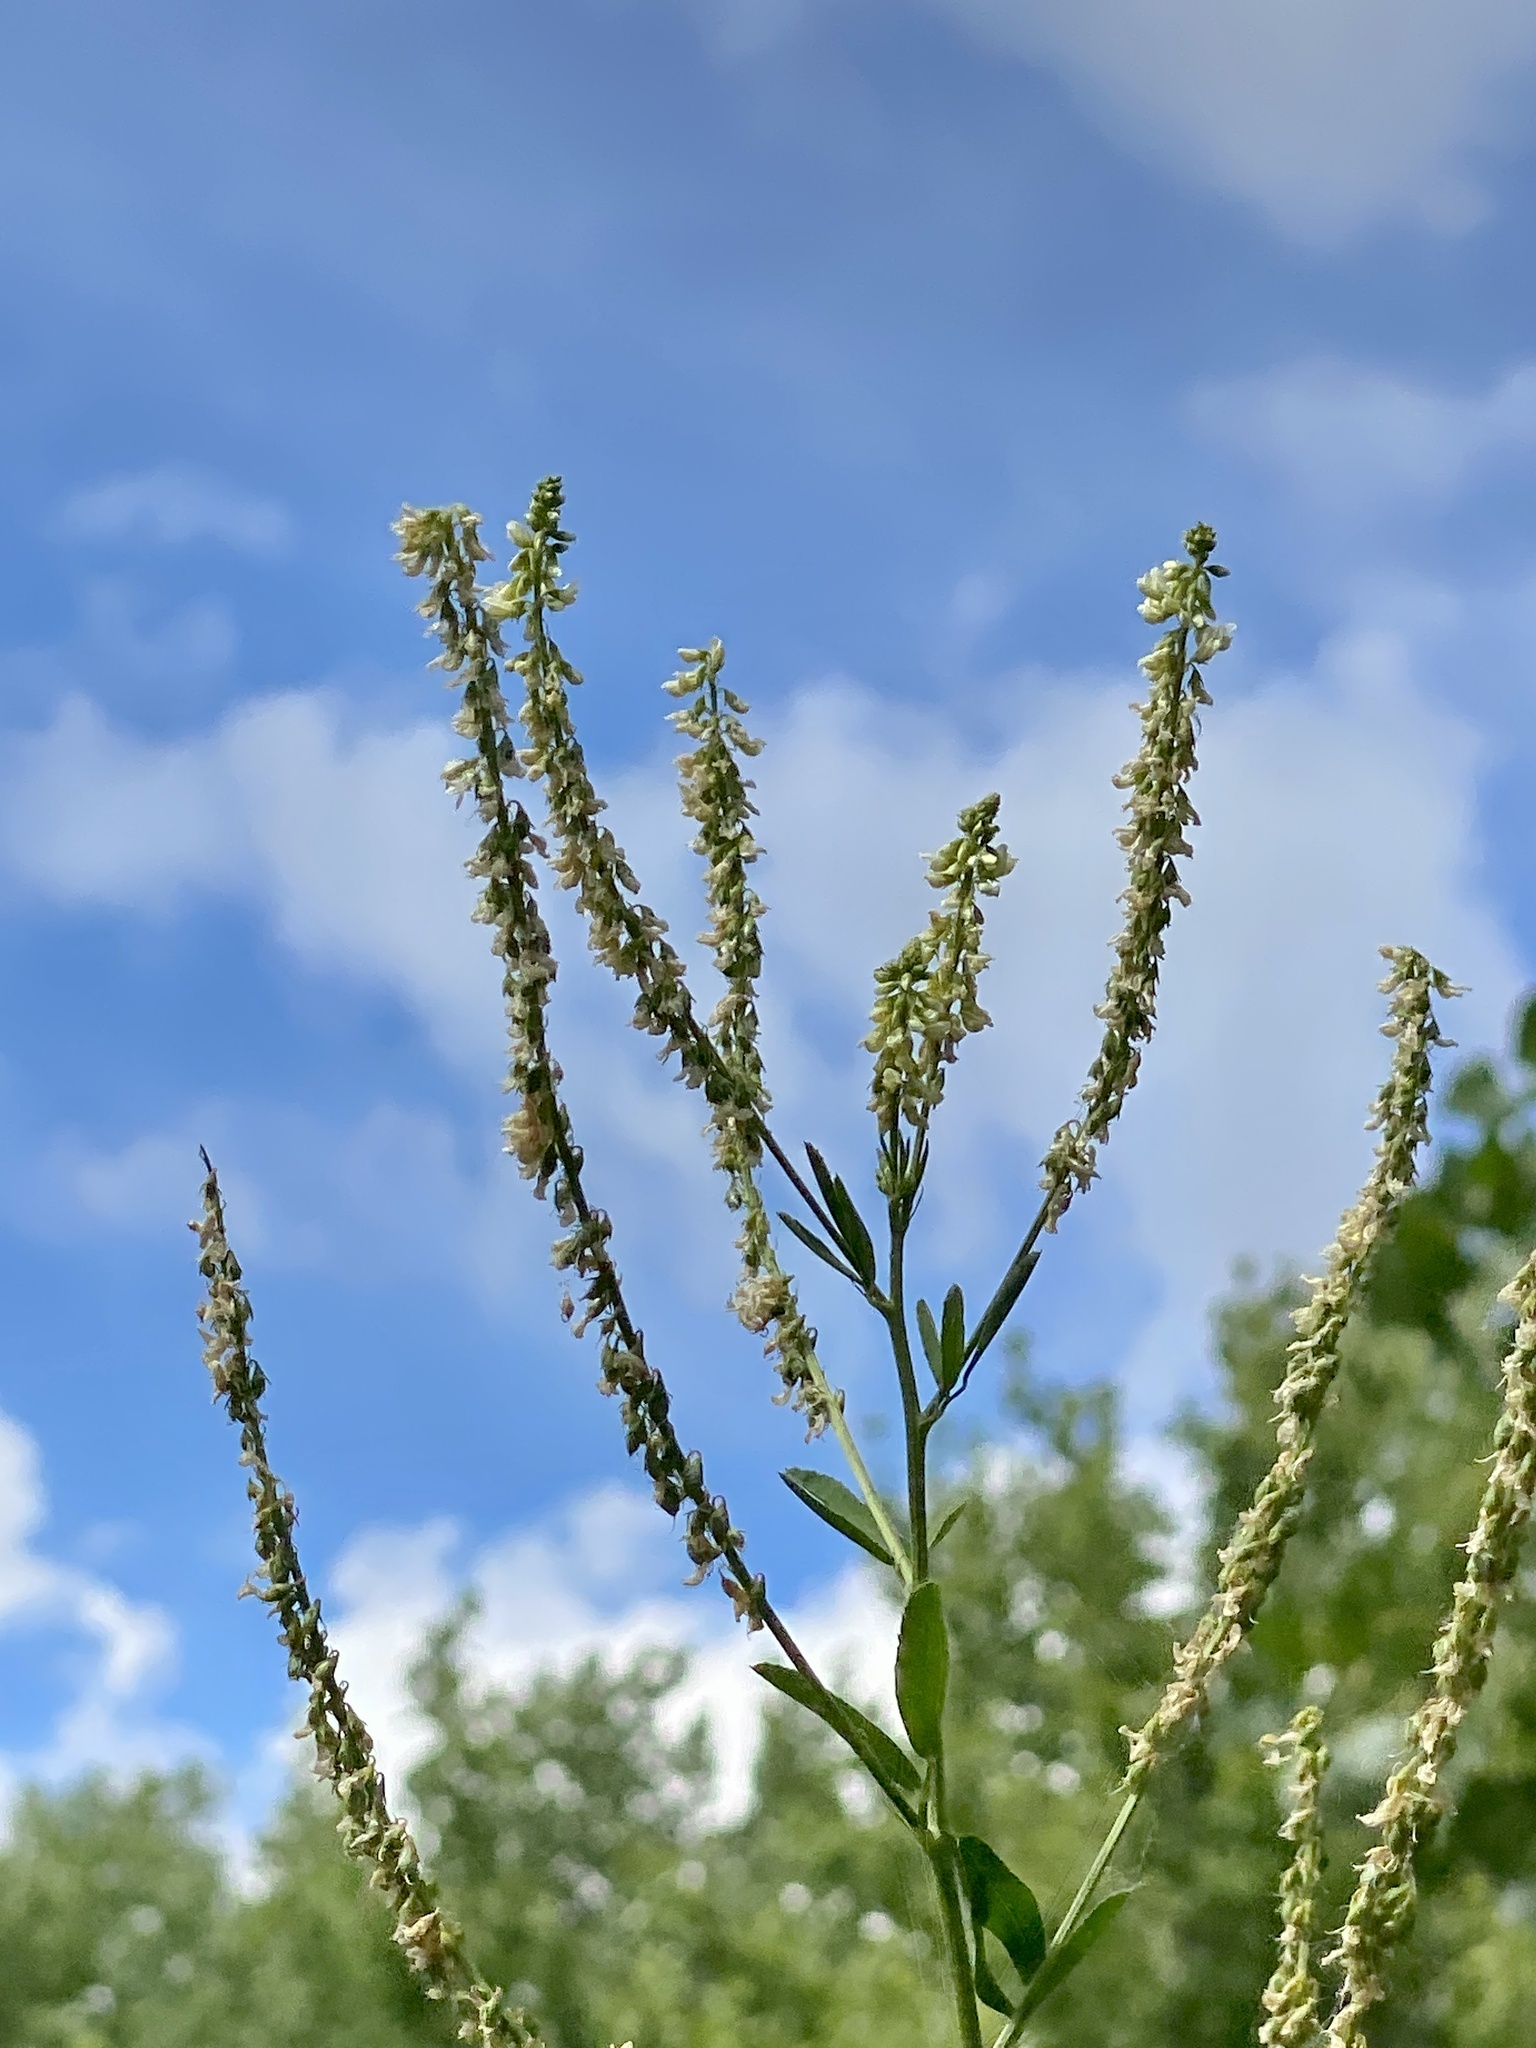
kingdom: Plantae
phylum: Tracheophyta
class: Magnoliopsida
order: Fabales
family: Fabaceae
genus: Melilotus
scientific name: Melilotus albus
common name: White melilot
